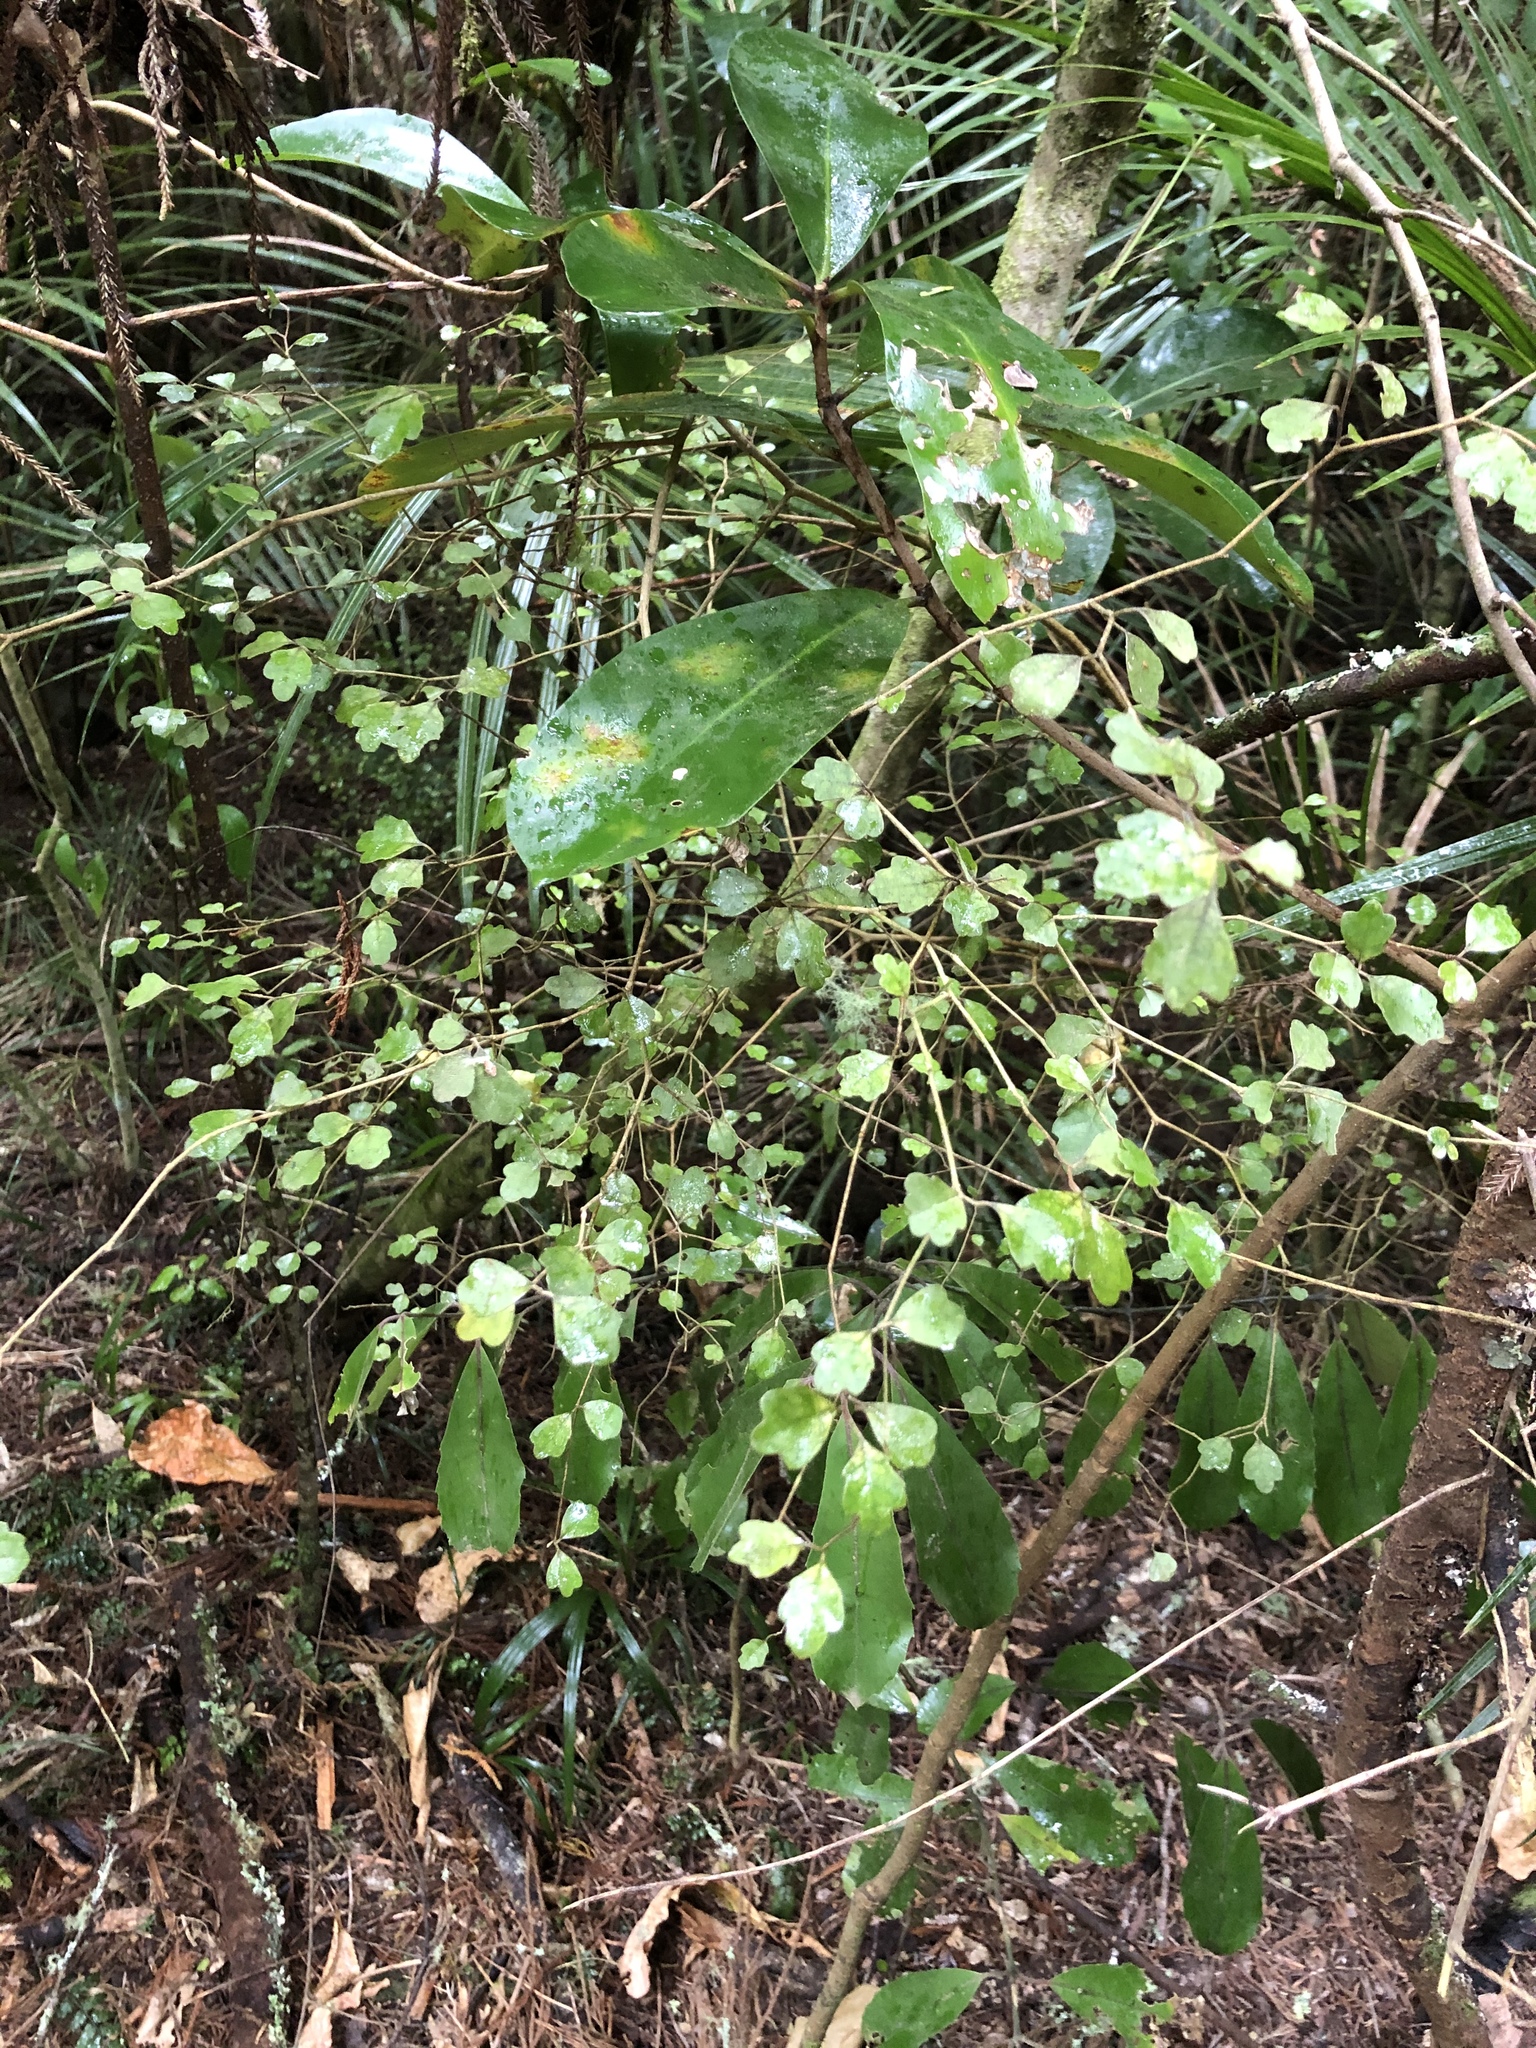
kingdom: Plantae
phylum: Tracheophyta
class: Magnoliopsida
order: Apiales
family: Pennantiaceae
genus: Pennantia
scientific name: Pennantia corymbosa
